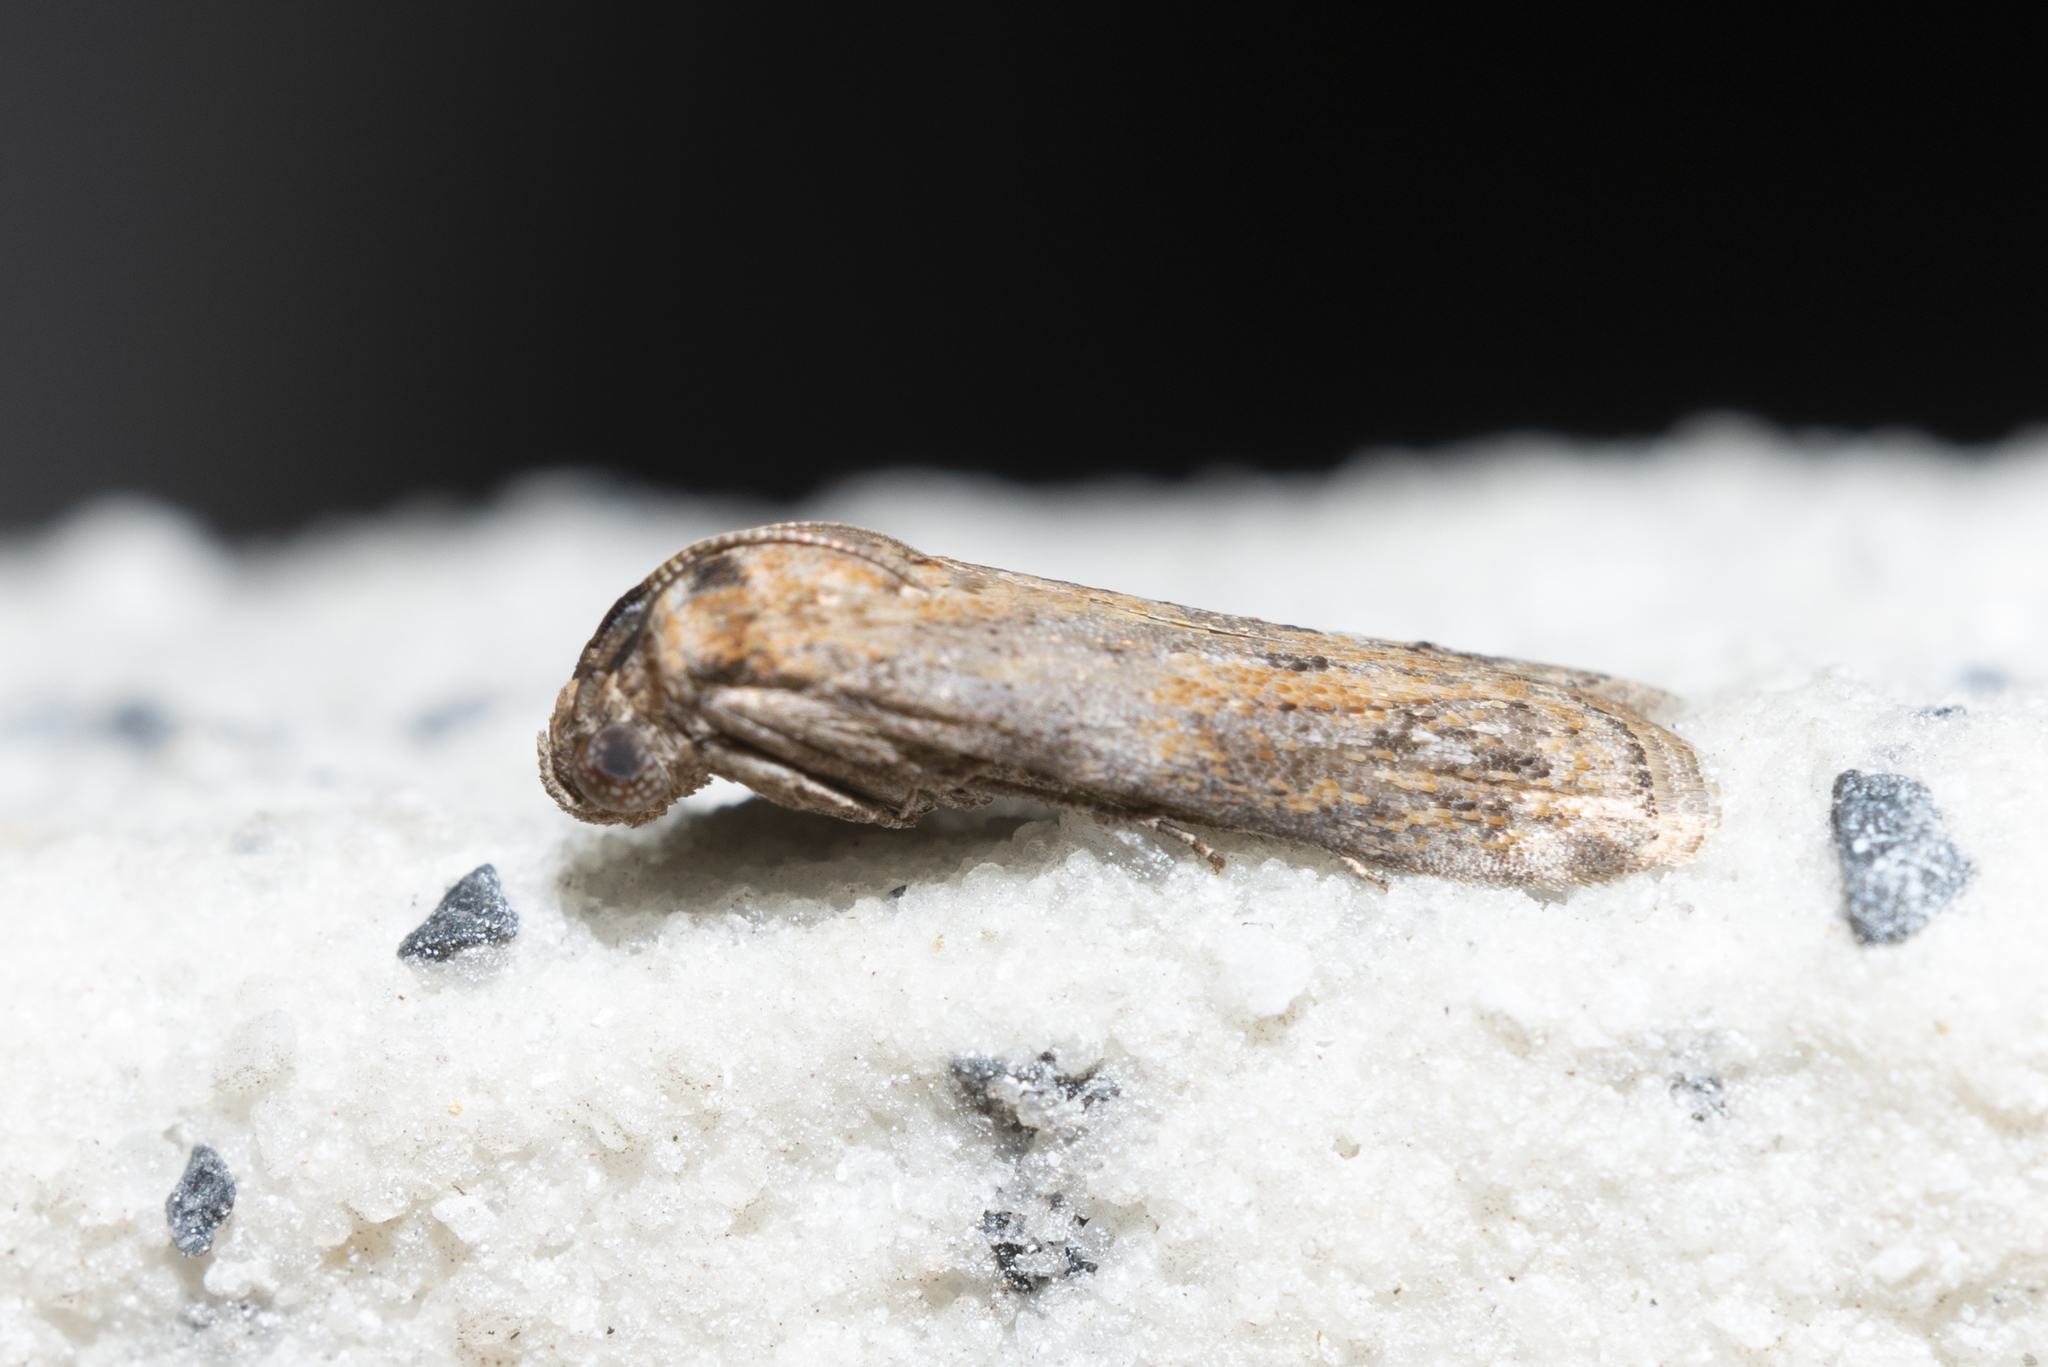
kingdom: Animalia
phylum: Arthropoda
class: Insecta
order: Lepidoptera
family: Pyralidae
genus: Phycita
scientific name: Phycita cirrhodelta
